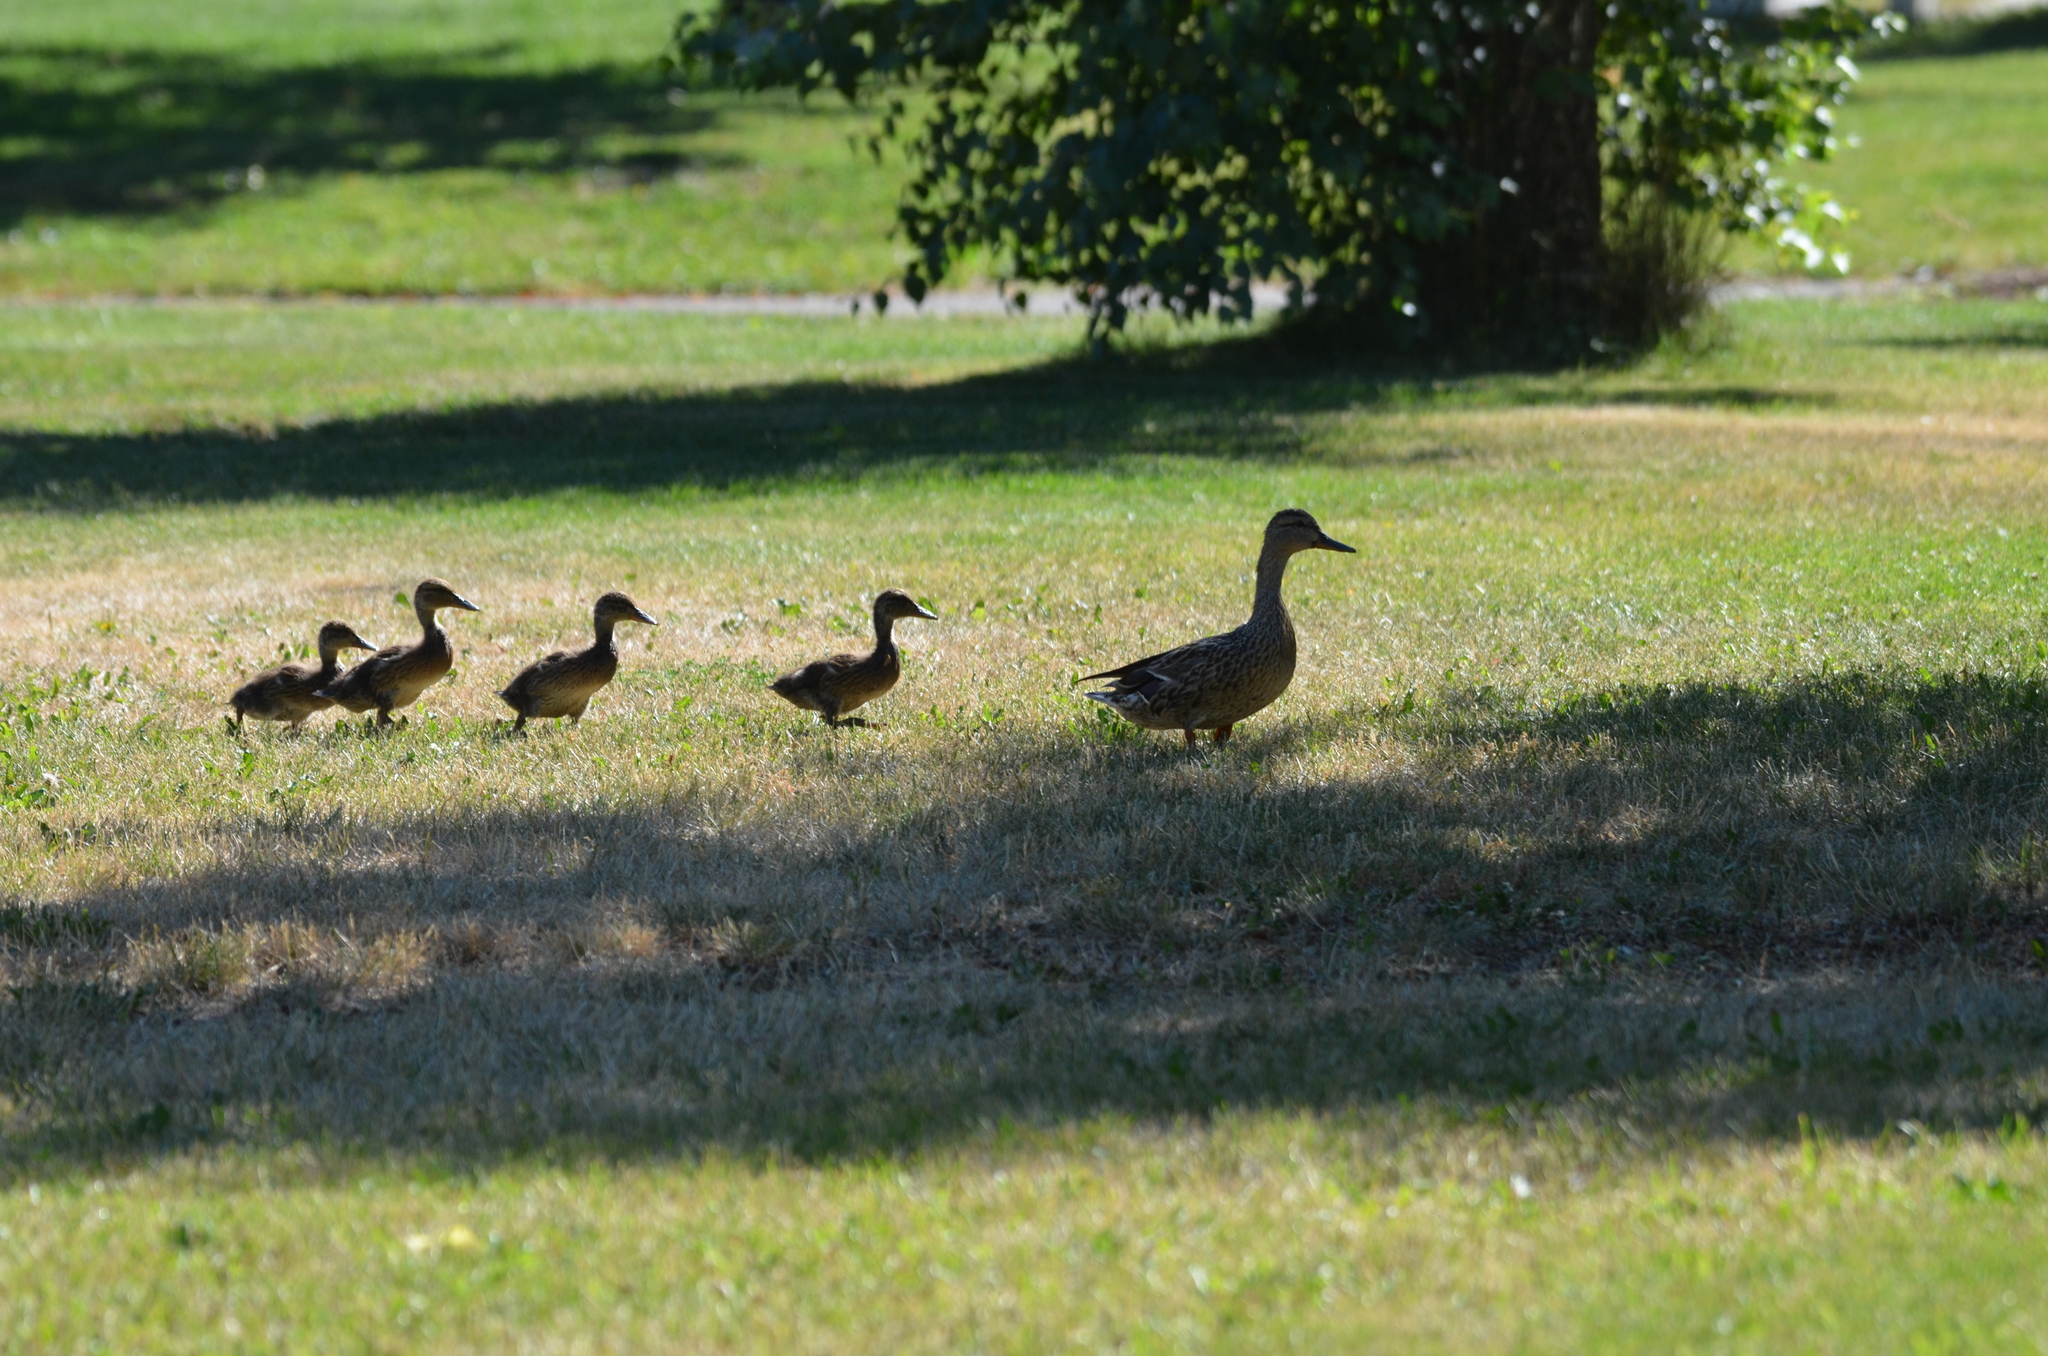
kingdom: Animalia
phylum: Chordata
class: Aves
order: Anseriformes
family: Anatidae
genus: Anas
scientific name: Anas platyrhynchos
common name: Mallard
